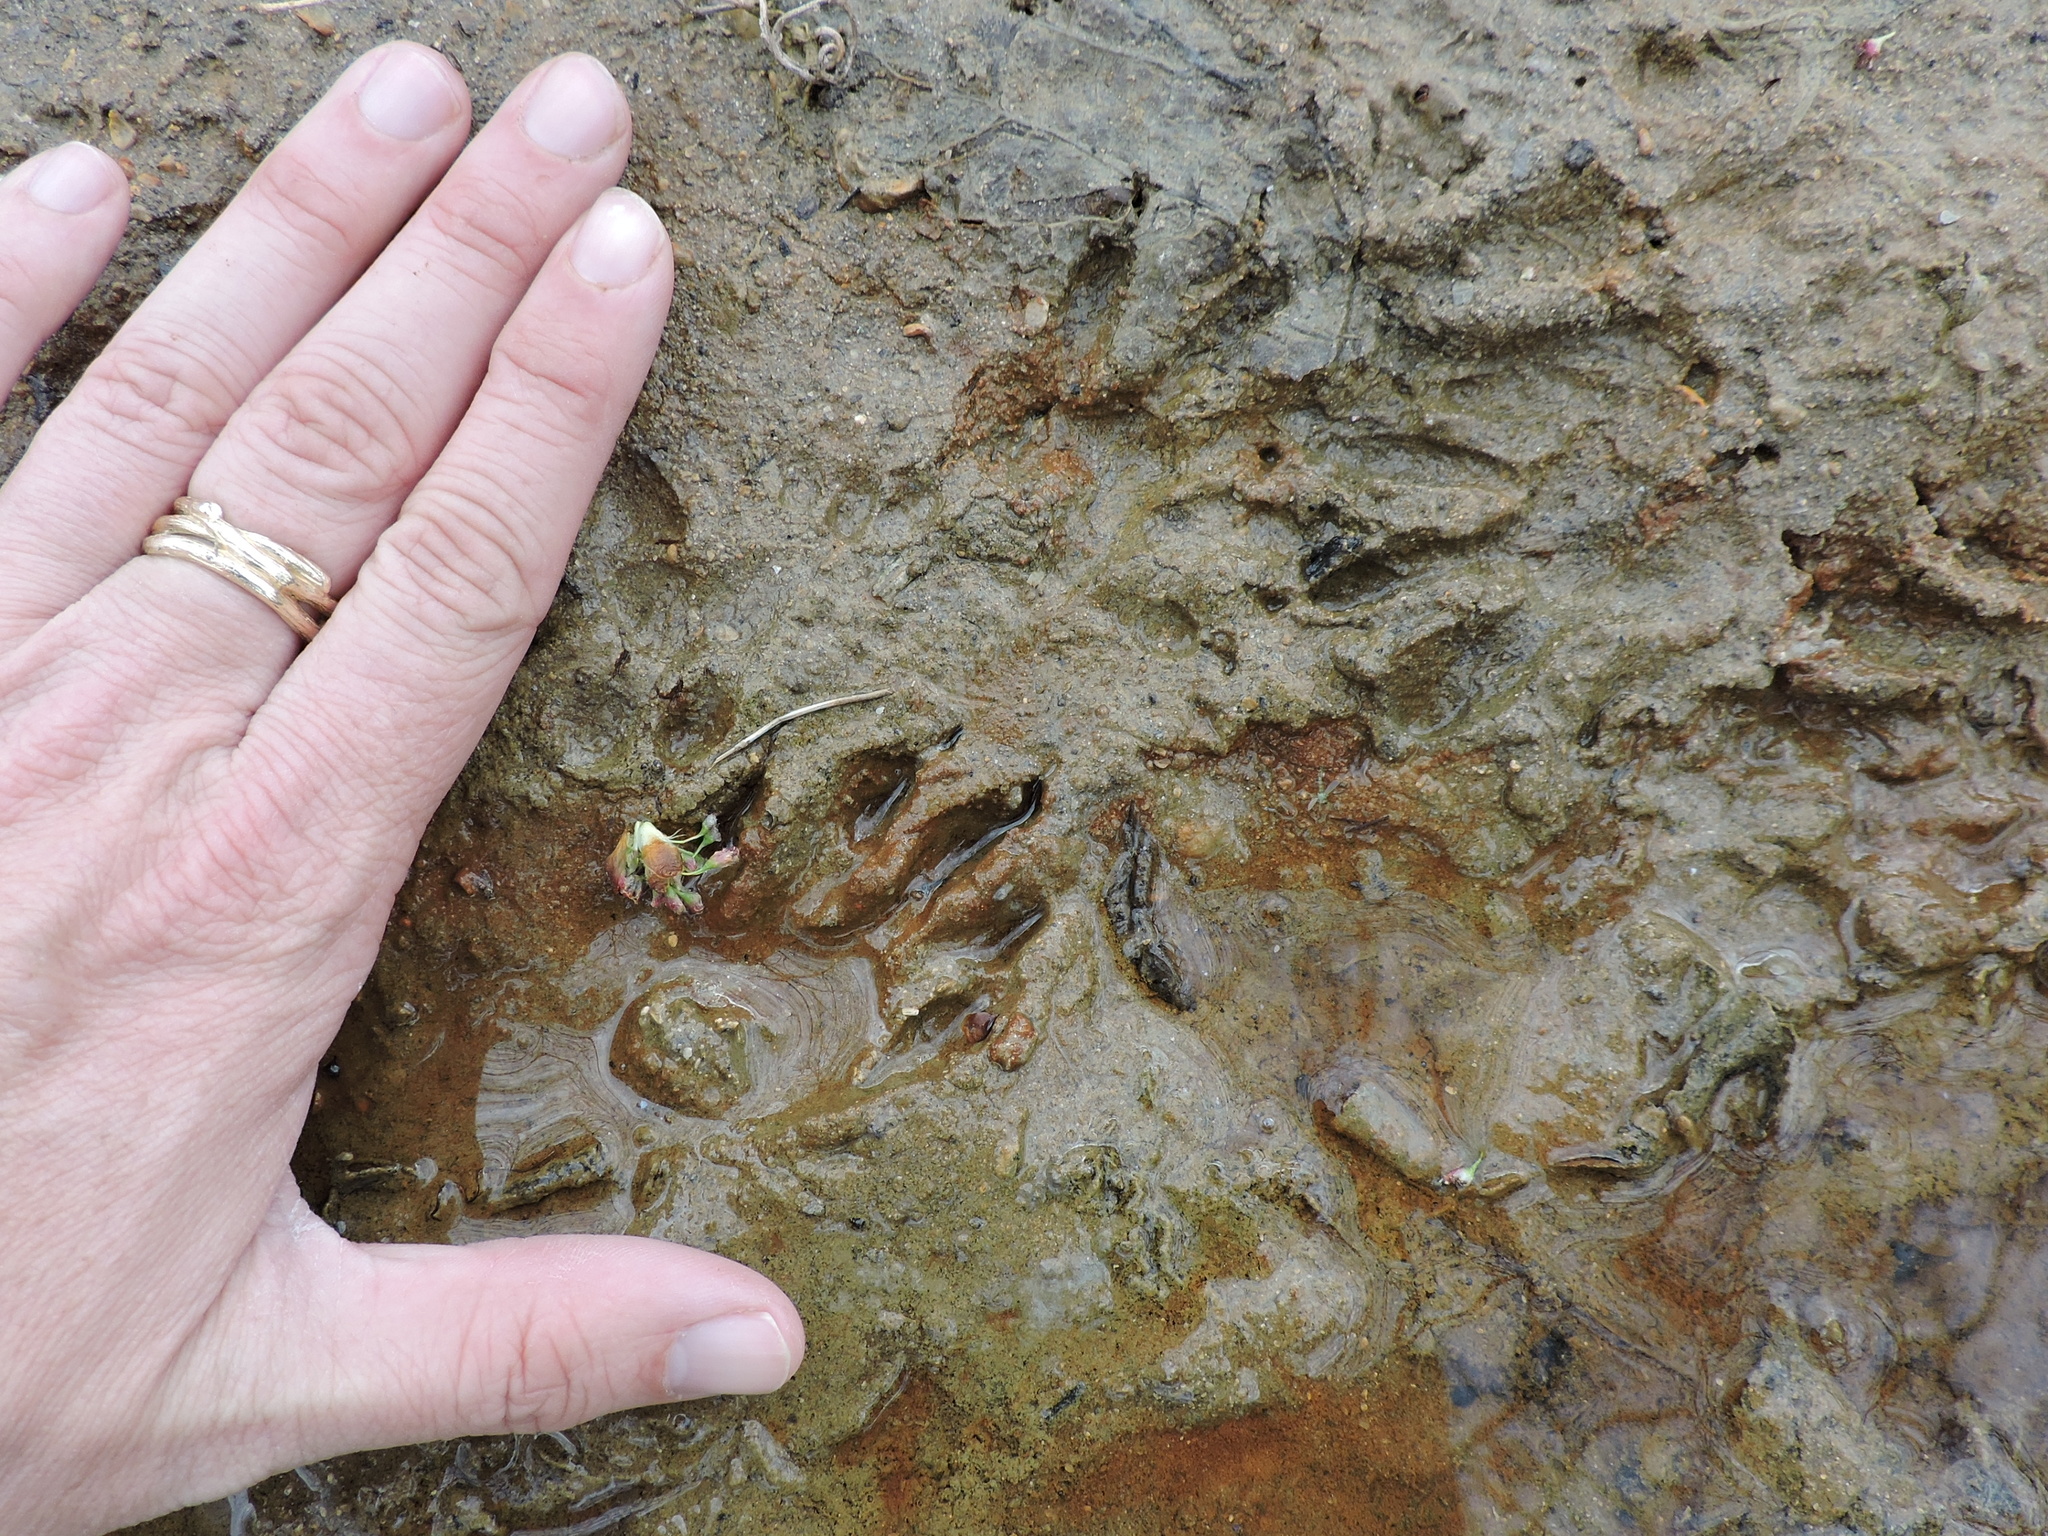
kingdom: Animalia
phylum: Chordata
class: Mammalia
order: Carnivora
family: Procyonidae
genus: Procyon
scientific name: Procyon lotor
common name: Raccoon
